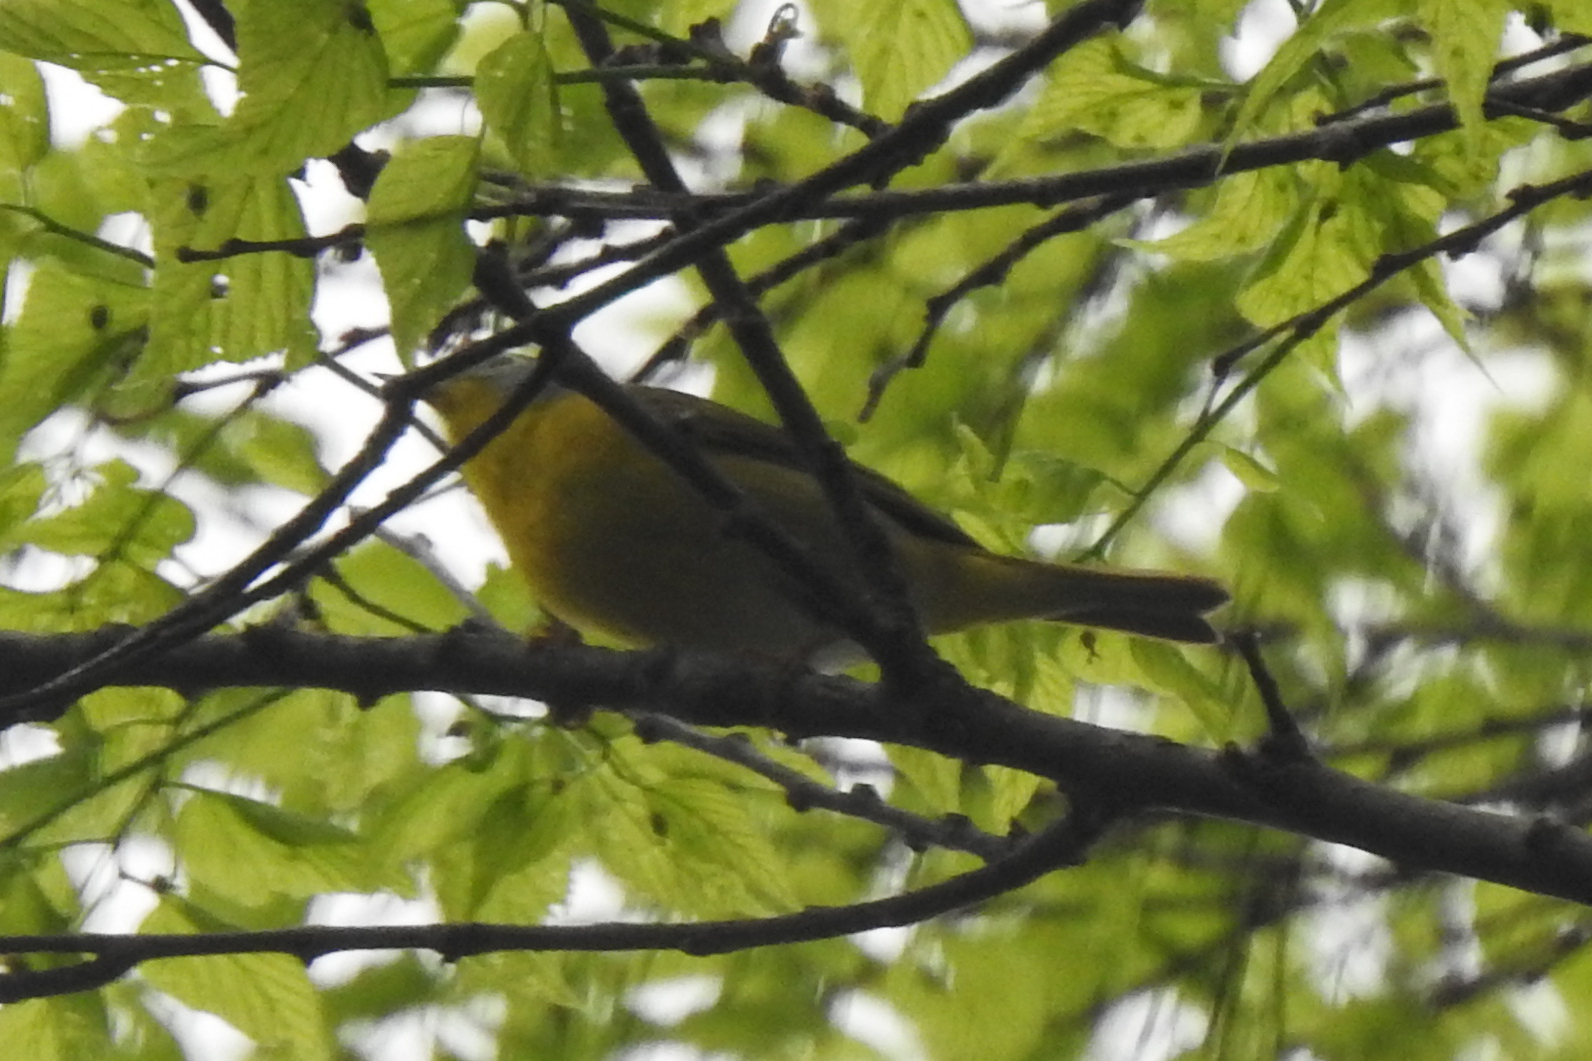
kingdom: Animalia
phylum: Chordata
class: Aves
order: Passeriformes
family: Parulidae
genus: Leiothlypis
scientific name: Leiothlypis ruficapilla
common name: Nashville warbler
